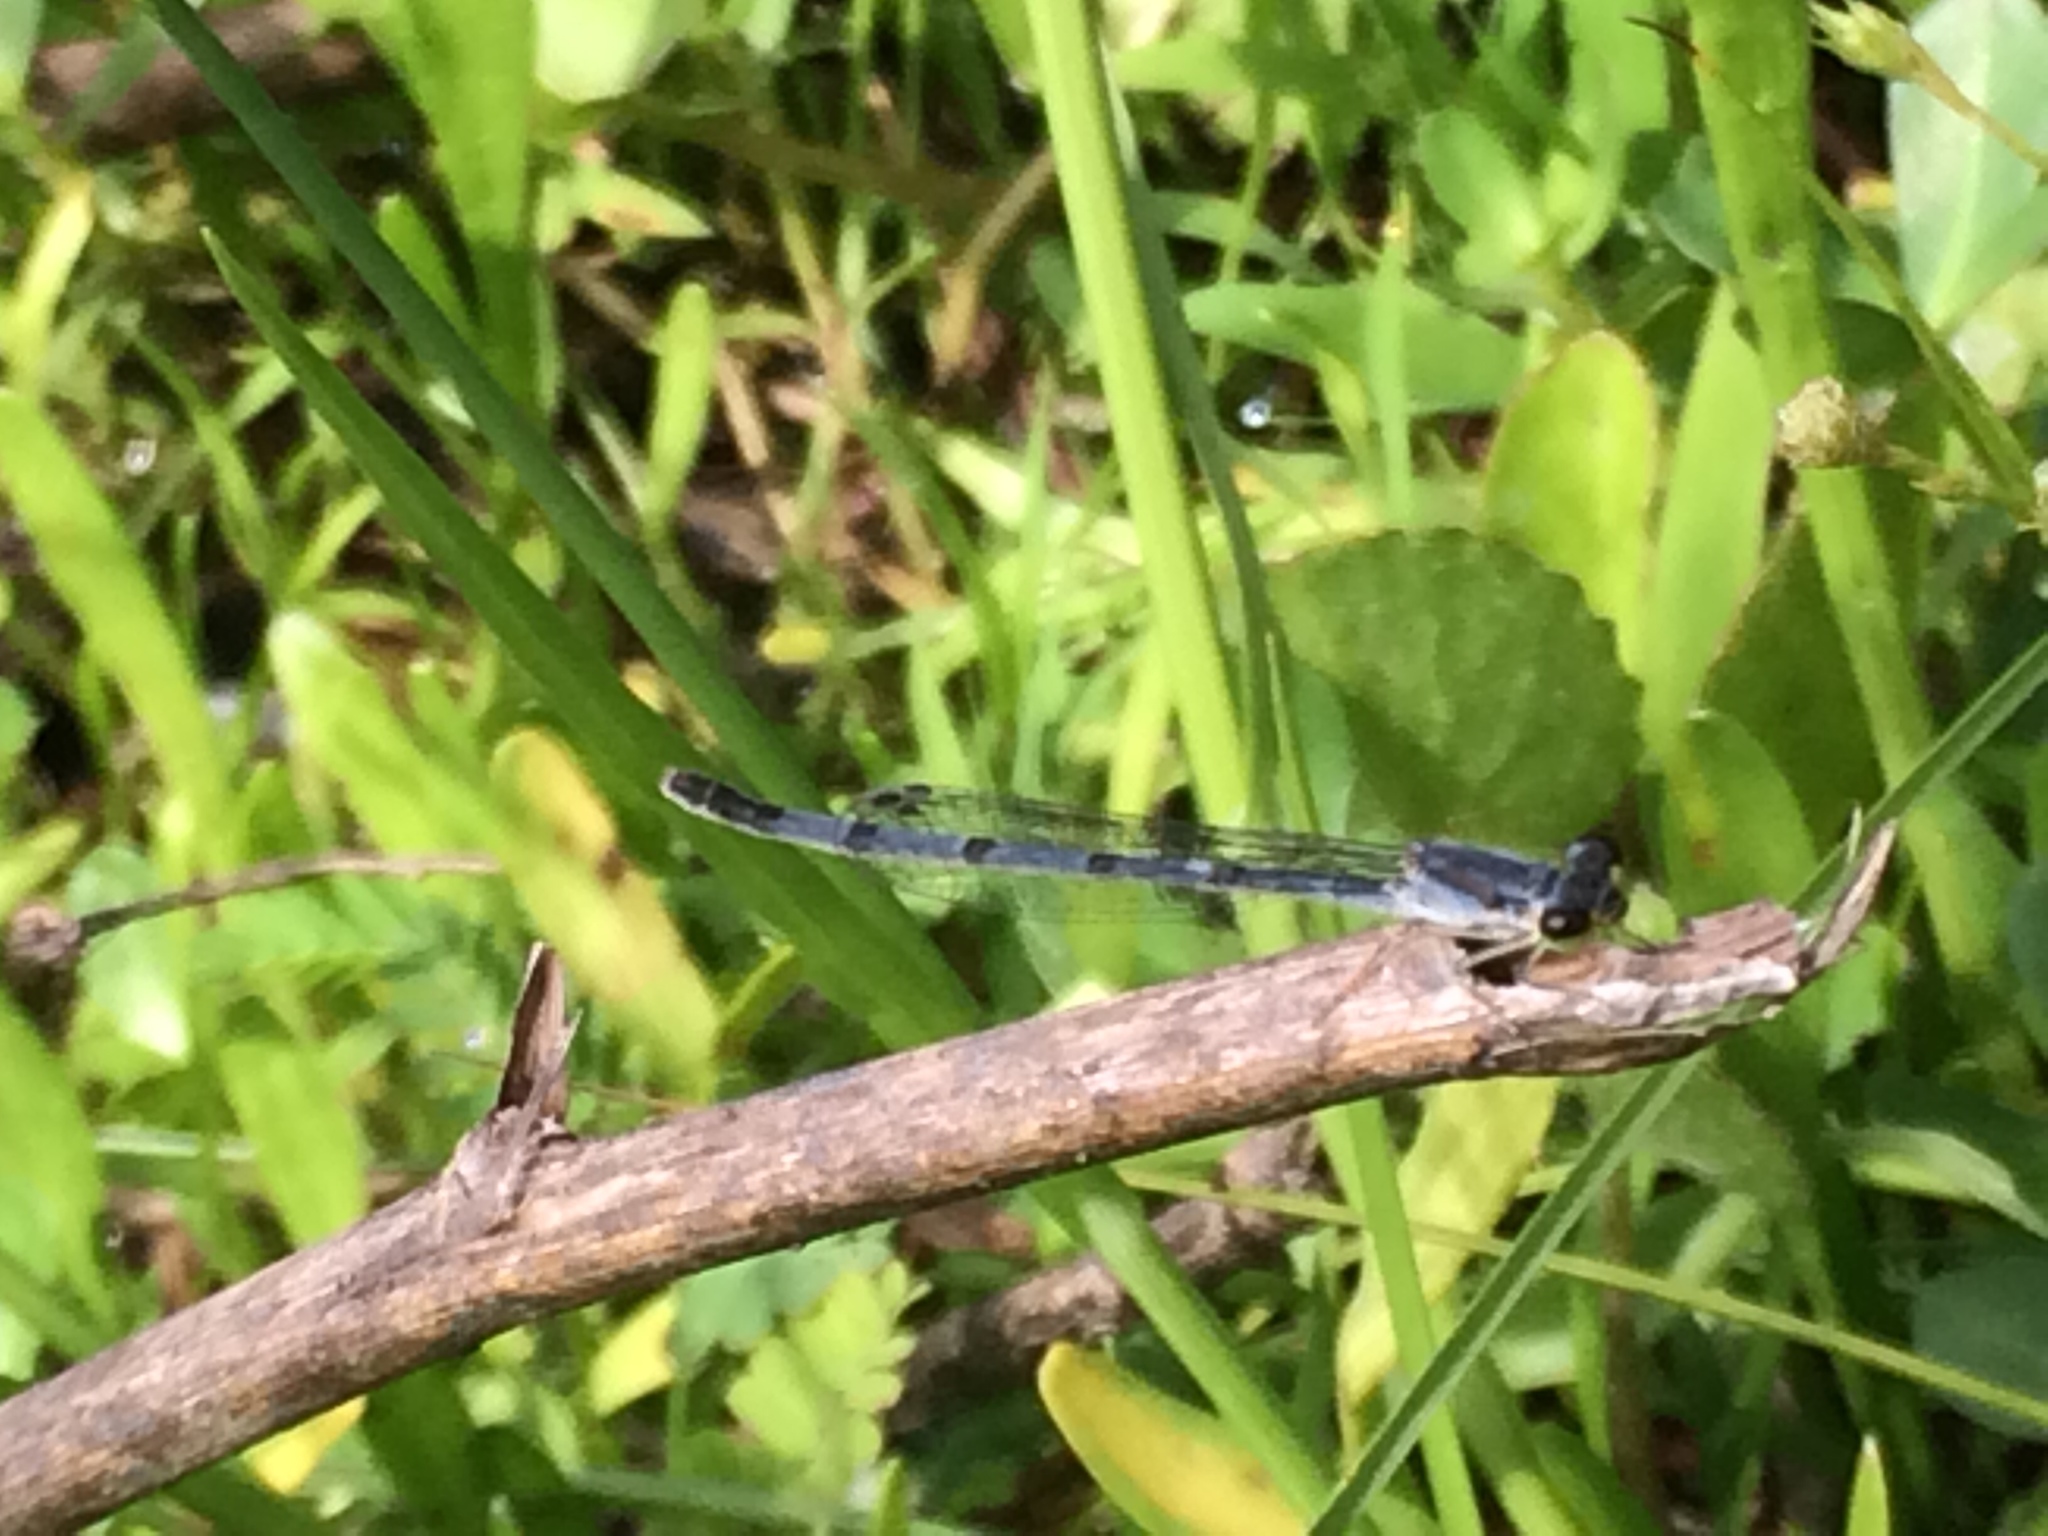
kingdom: Animalia
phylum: Arthropoda
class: Insecta
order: Odonata
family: Coenagrionidae
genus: Ischnura
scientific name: Ischnura posita
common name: Fragile forktail
